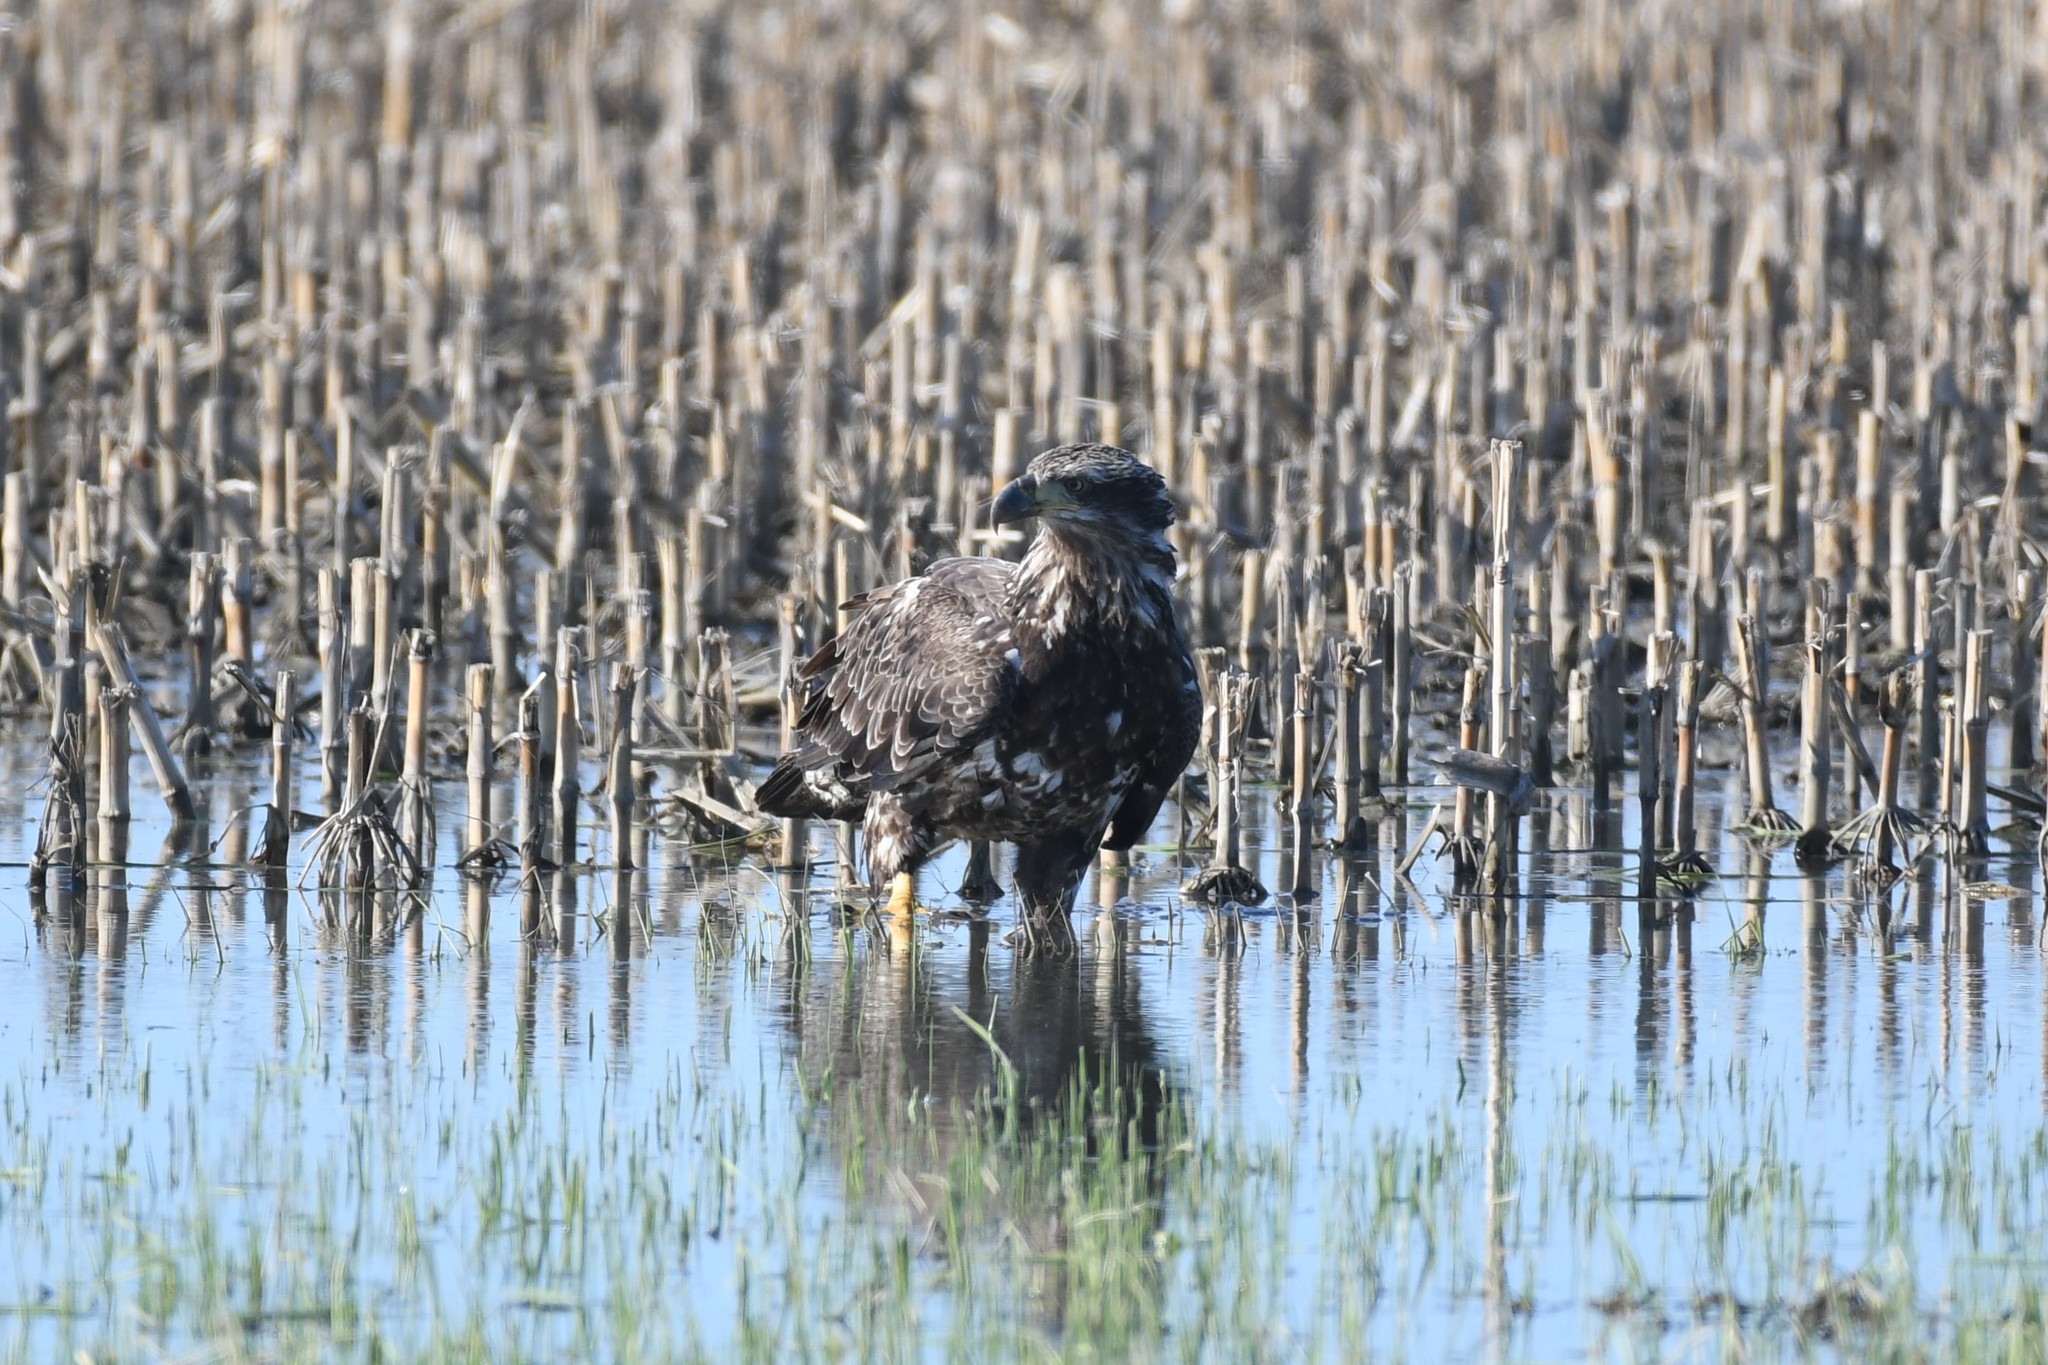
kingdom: Animalia
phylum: Chordata
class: Aves
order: Accipitriformes
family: Accipitridae
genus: Haliaeetus
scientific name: Haliaeetus leucocephalus
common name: Bald eagle
